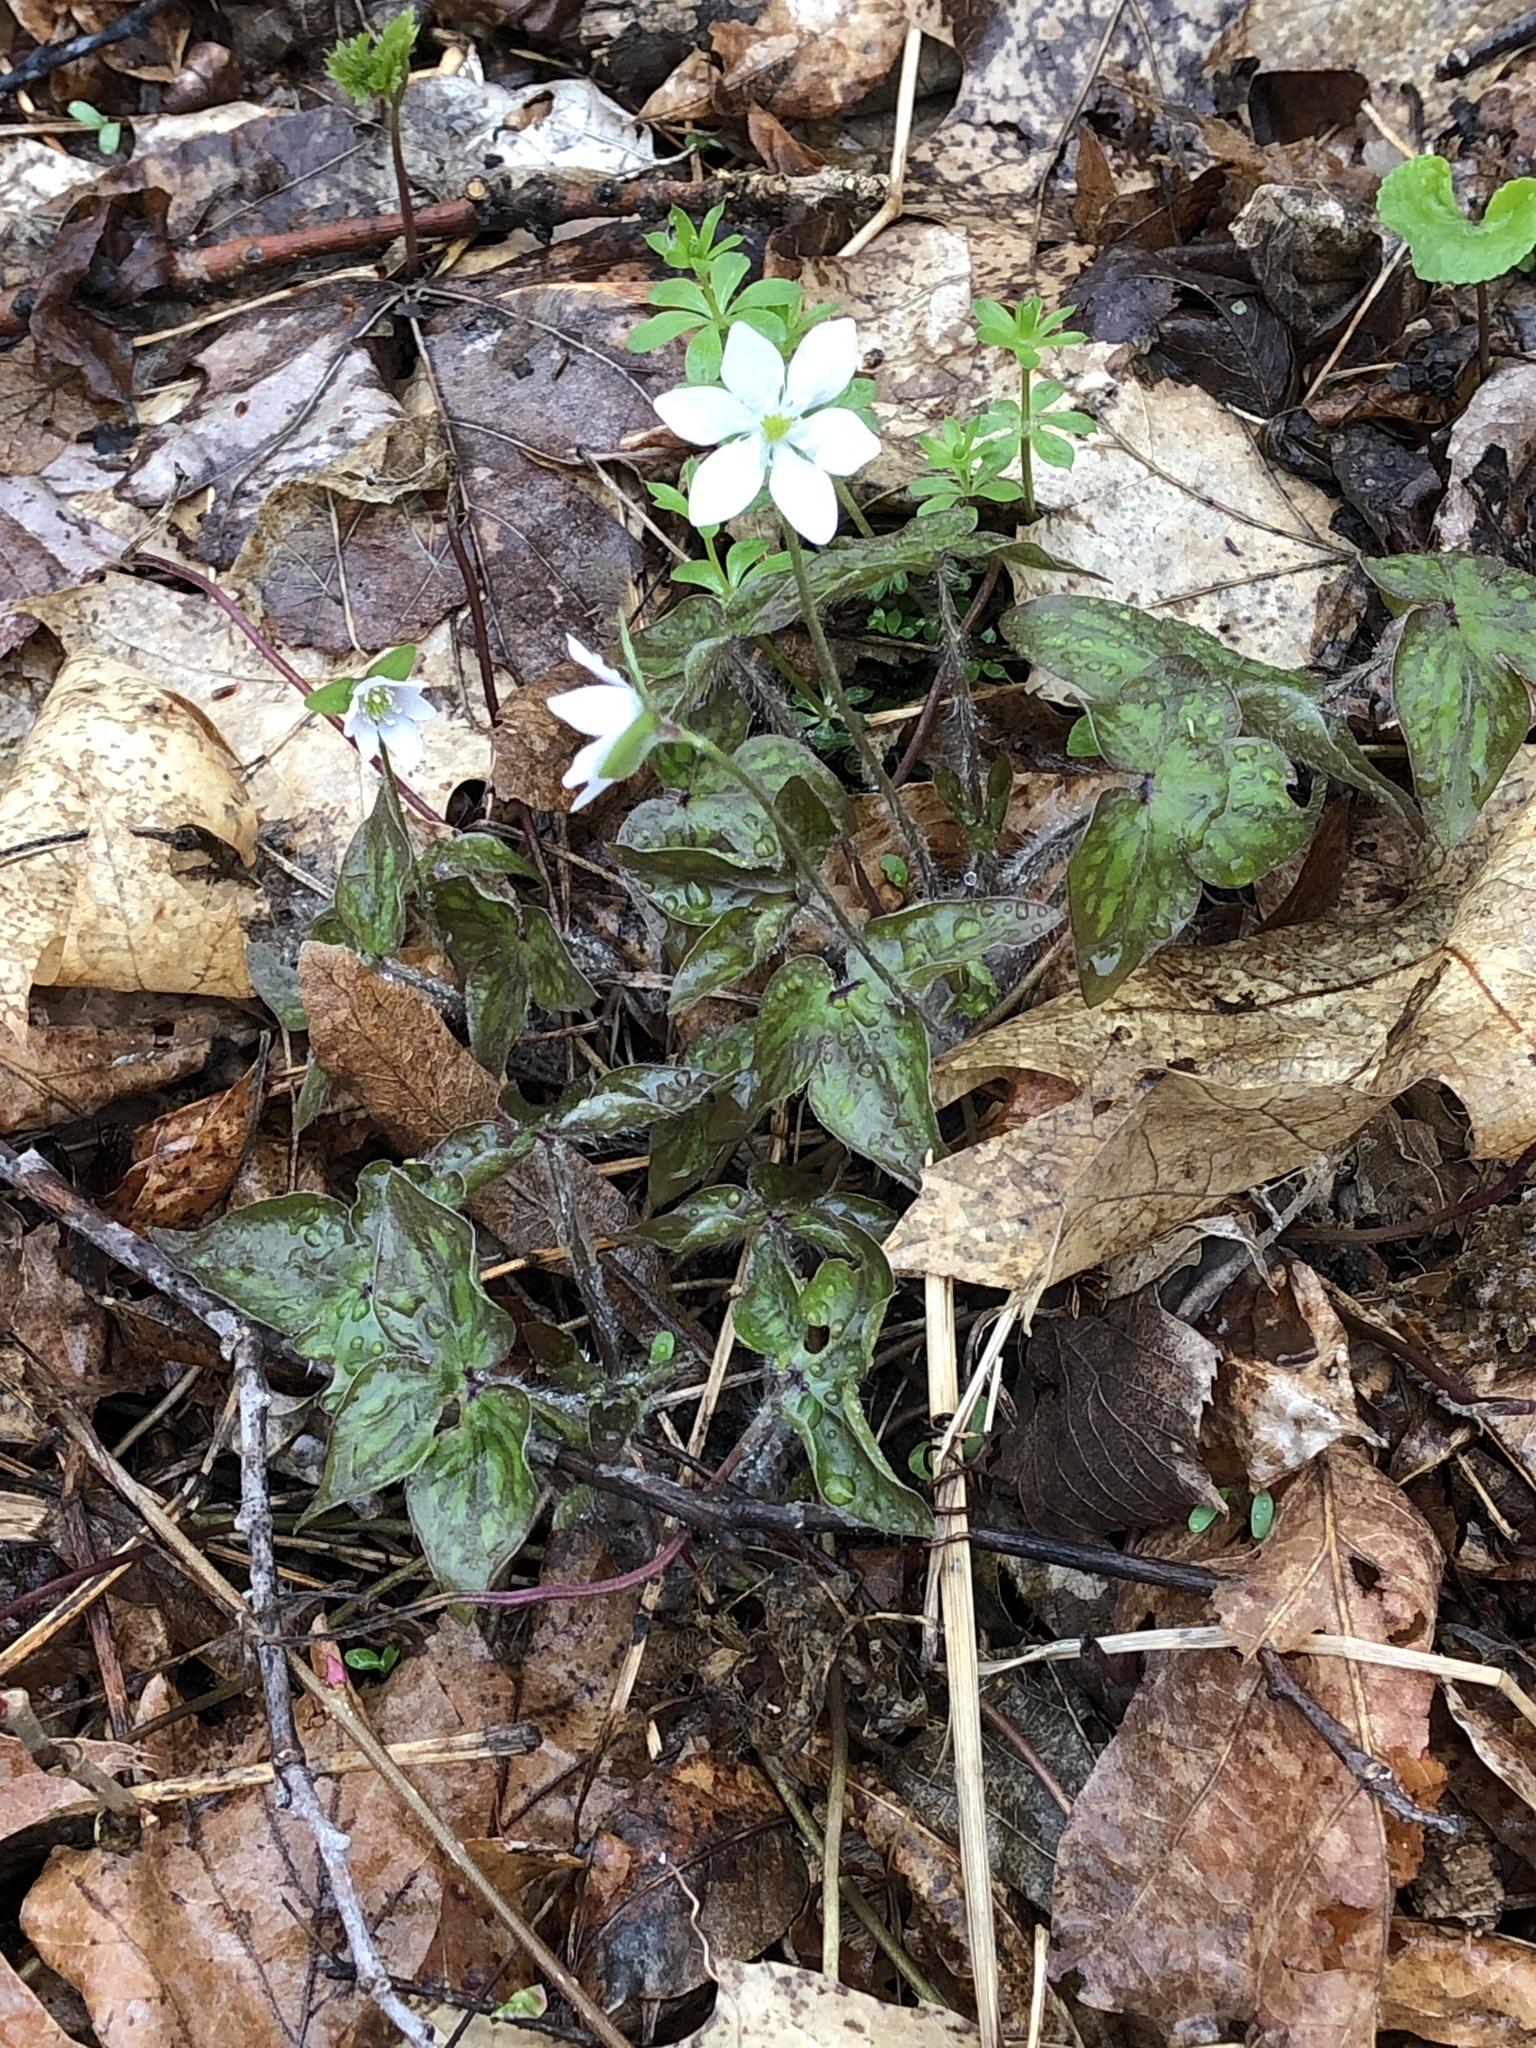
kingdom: Plantae
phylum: Tracheophyta
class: Magnoliopsida
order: Ranunculales
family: Ranunculaceae
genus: Hepatica
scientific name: Hepatica acutiloba
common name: Sharp-lobed hepatica
